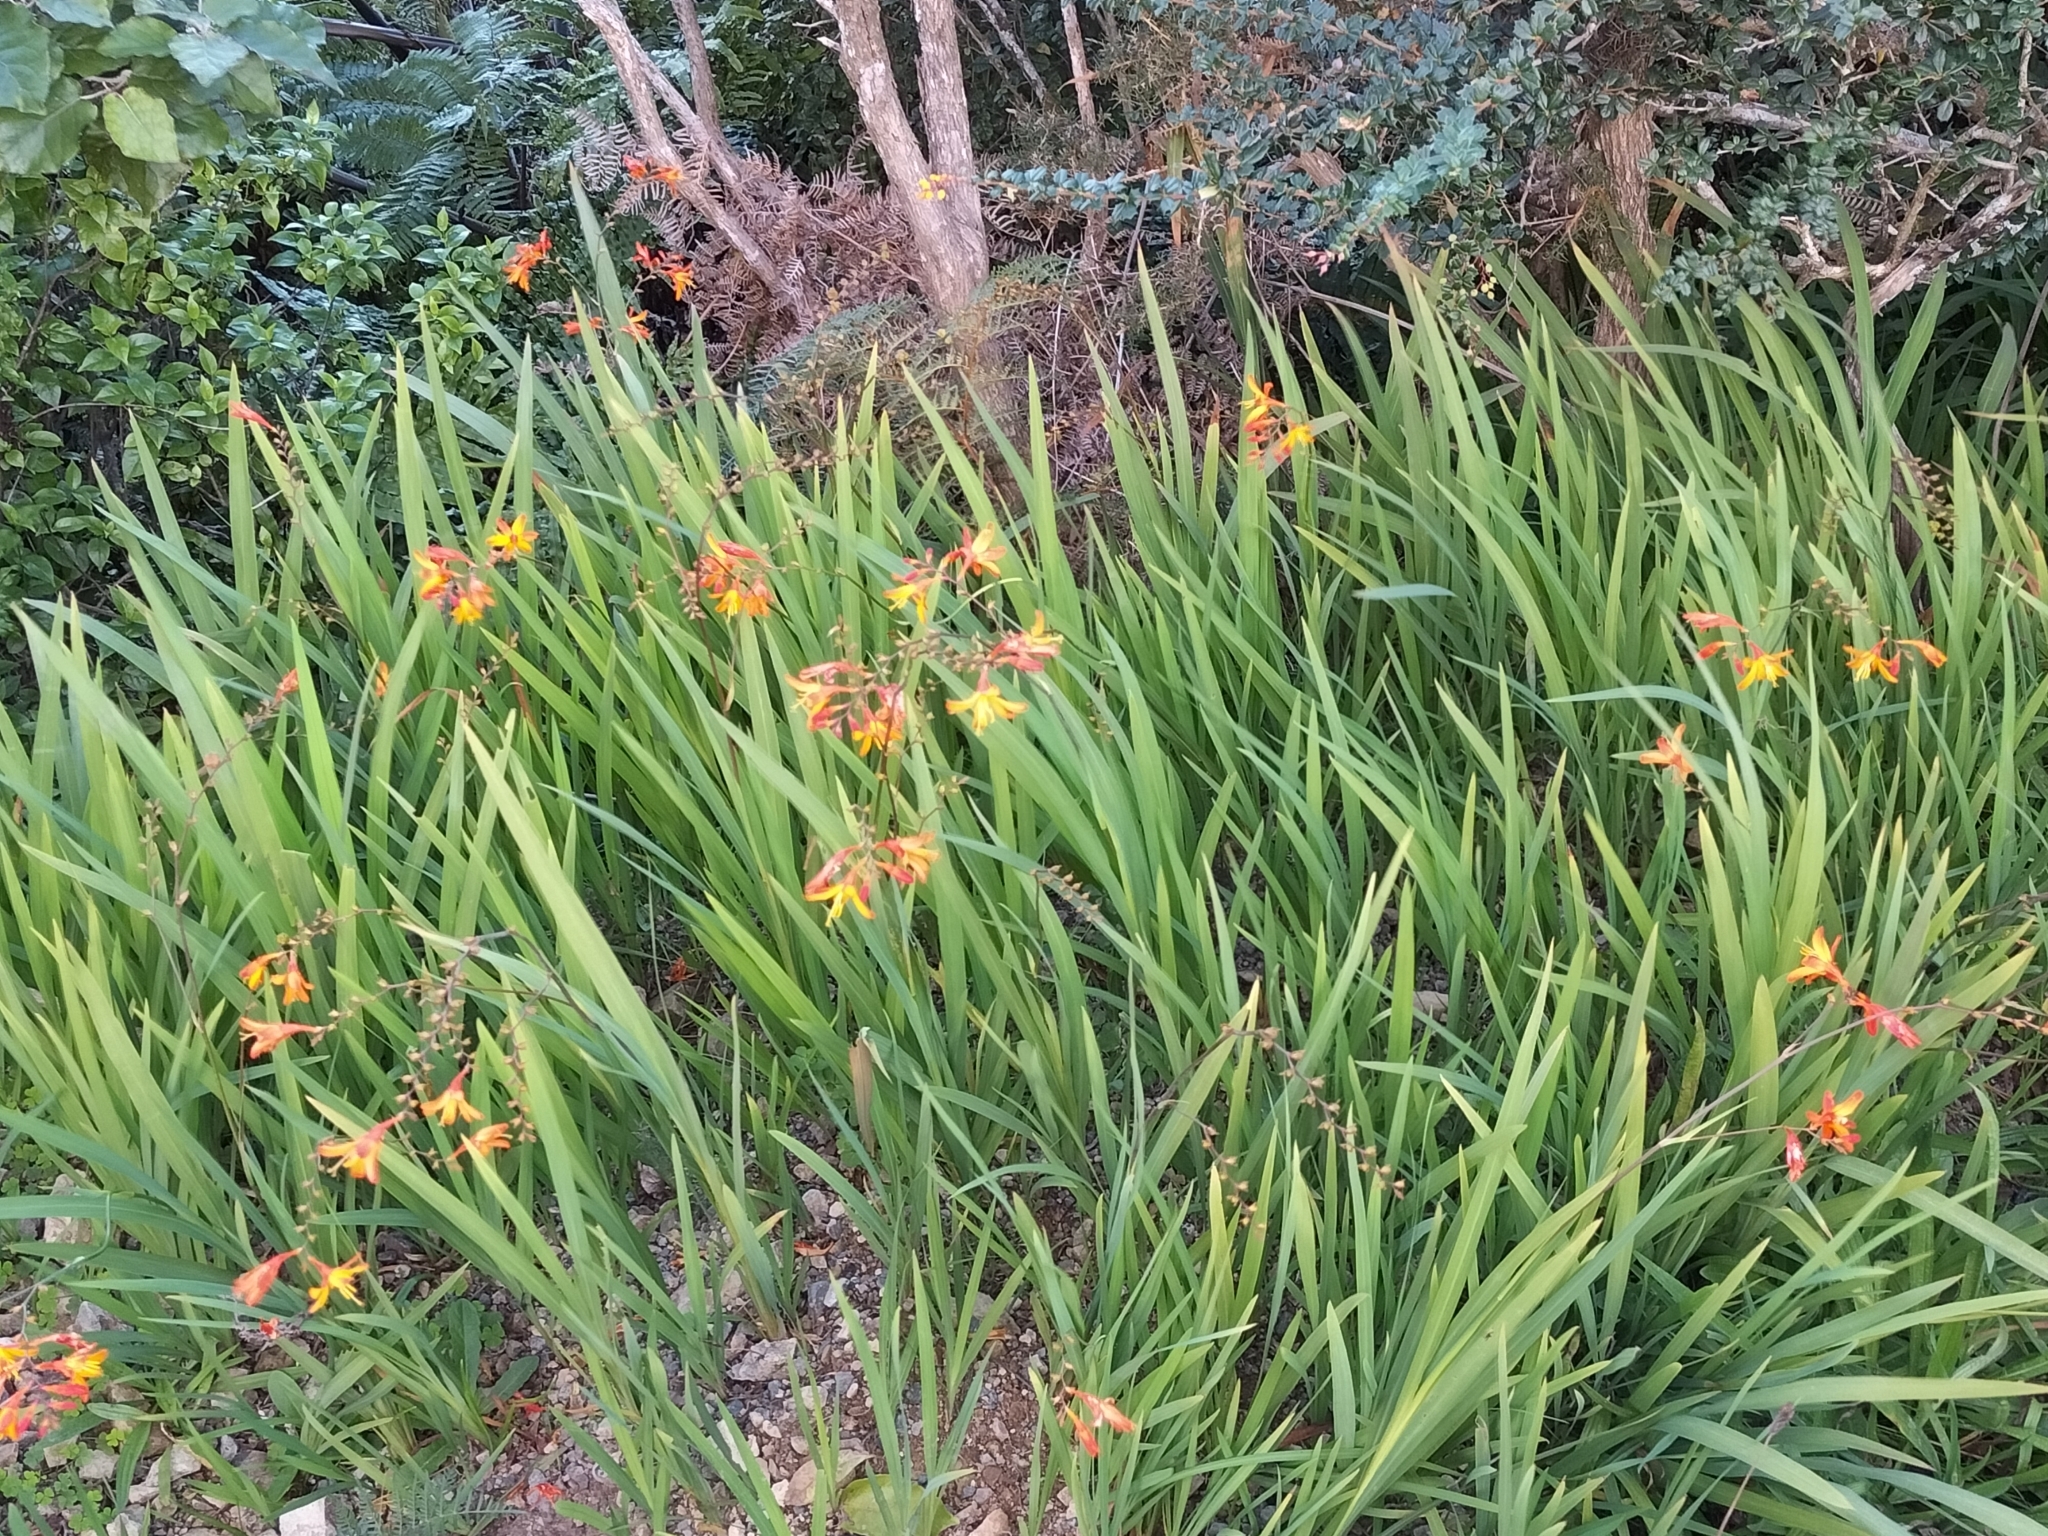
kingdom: Plantae
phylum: Tracheophyta
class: Liliopsida
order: Asparagales
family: Iridaceae
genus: Crocosmia
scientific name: Crocosmia crocosmiiflora
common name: Montbretia
